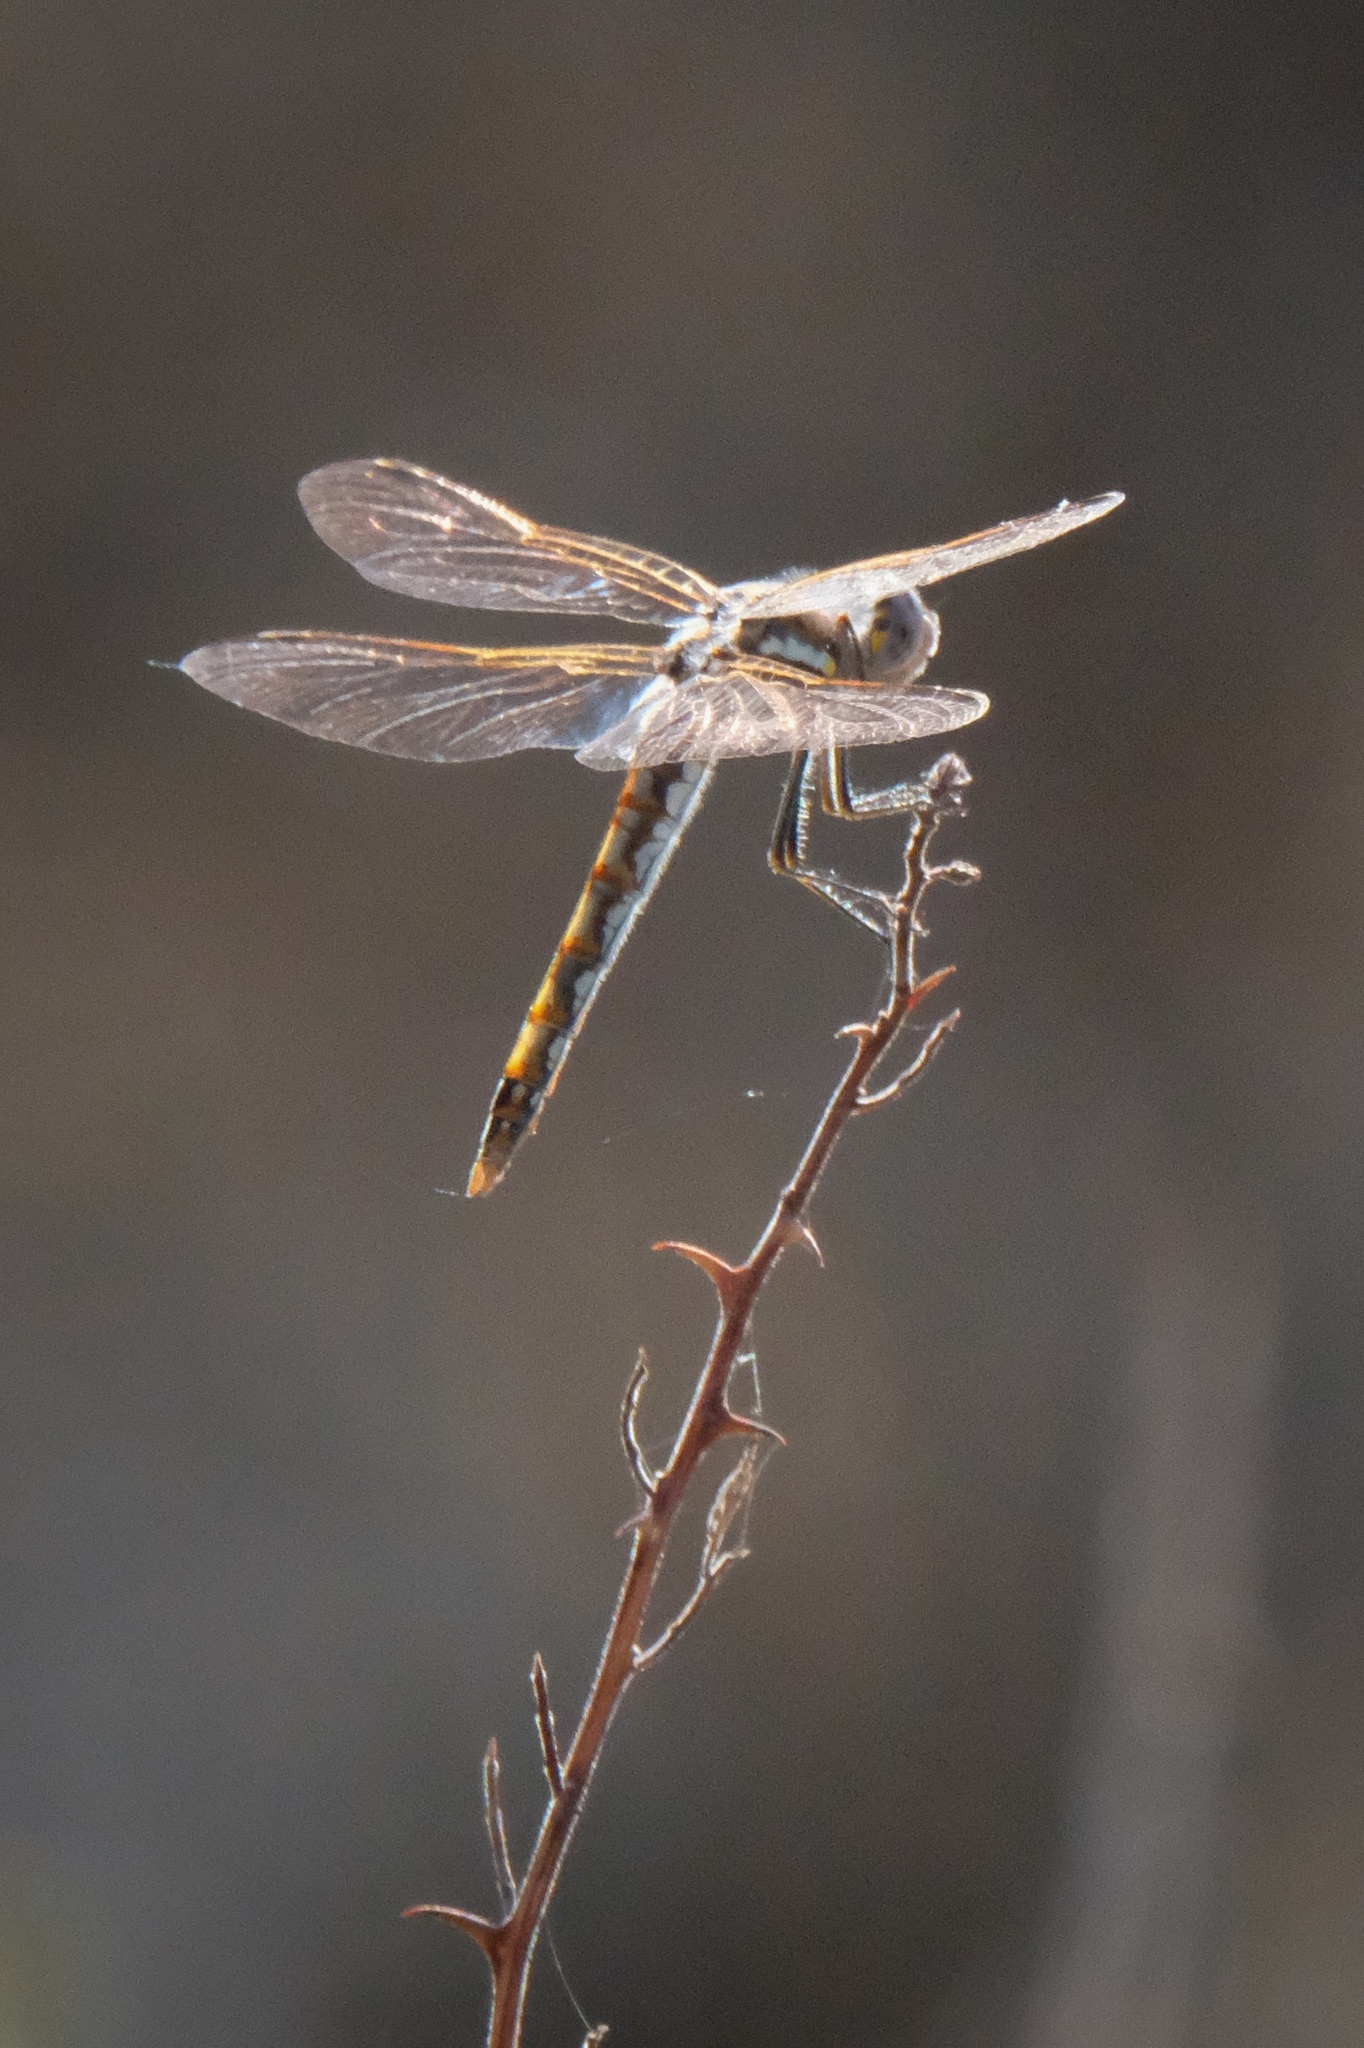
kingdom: Animalia
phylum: Arthropoda
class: Insecta
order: Odonata
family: Libellulidae
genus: Sympetrum
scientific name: Sympetrum corruptum
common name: Variegated meadowhawk
